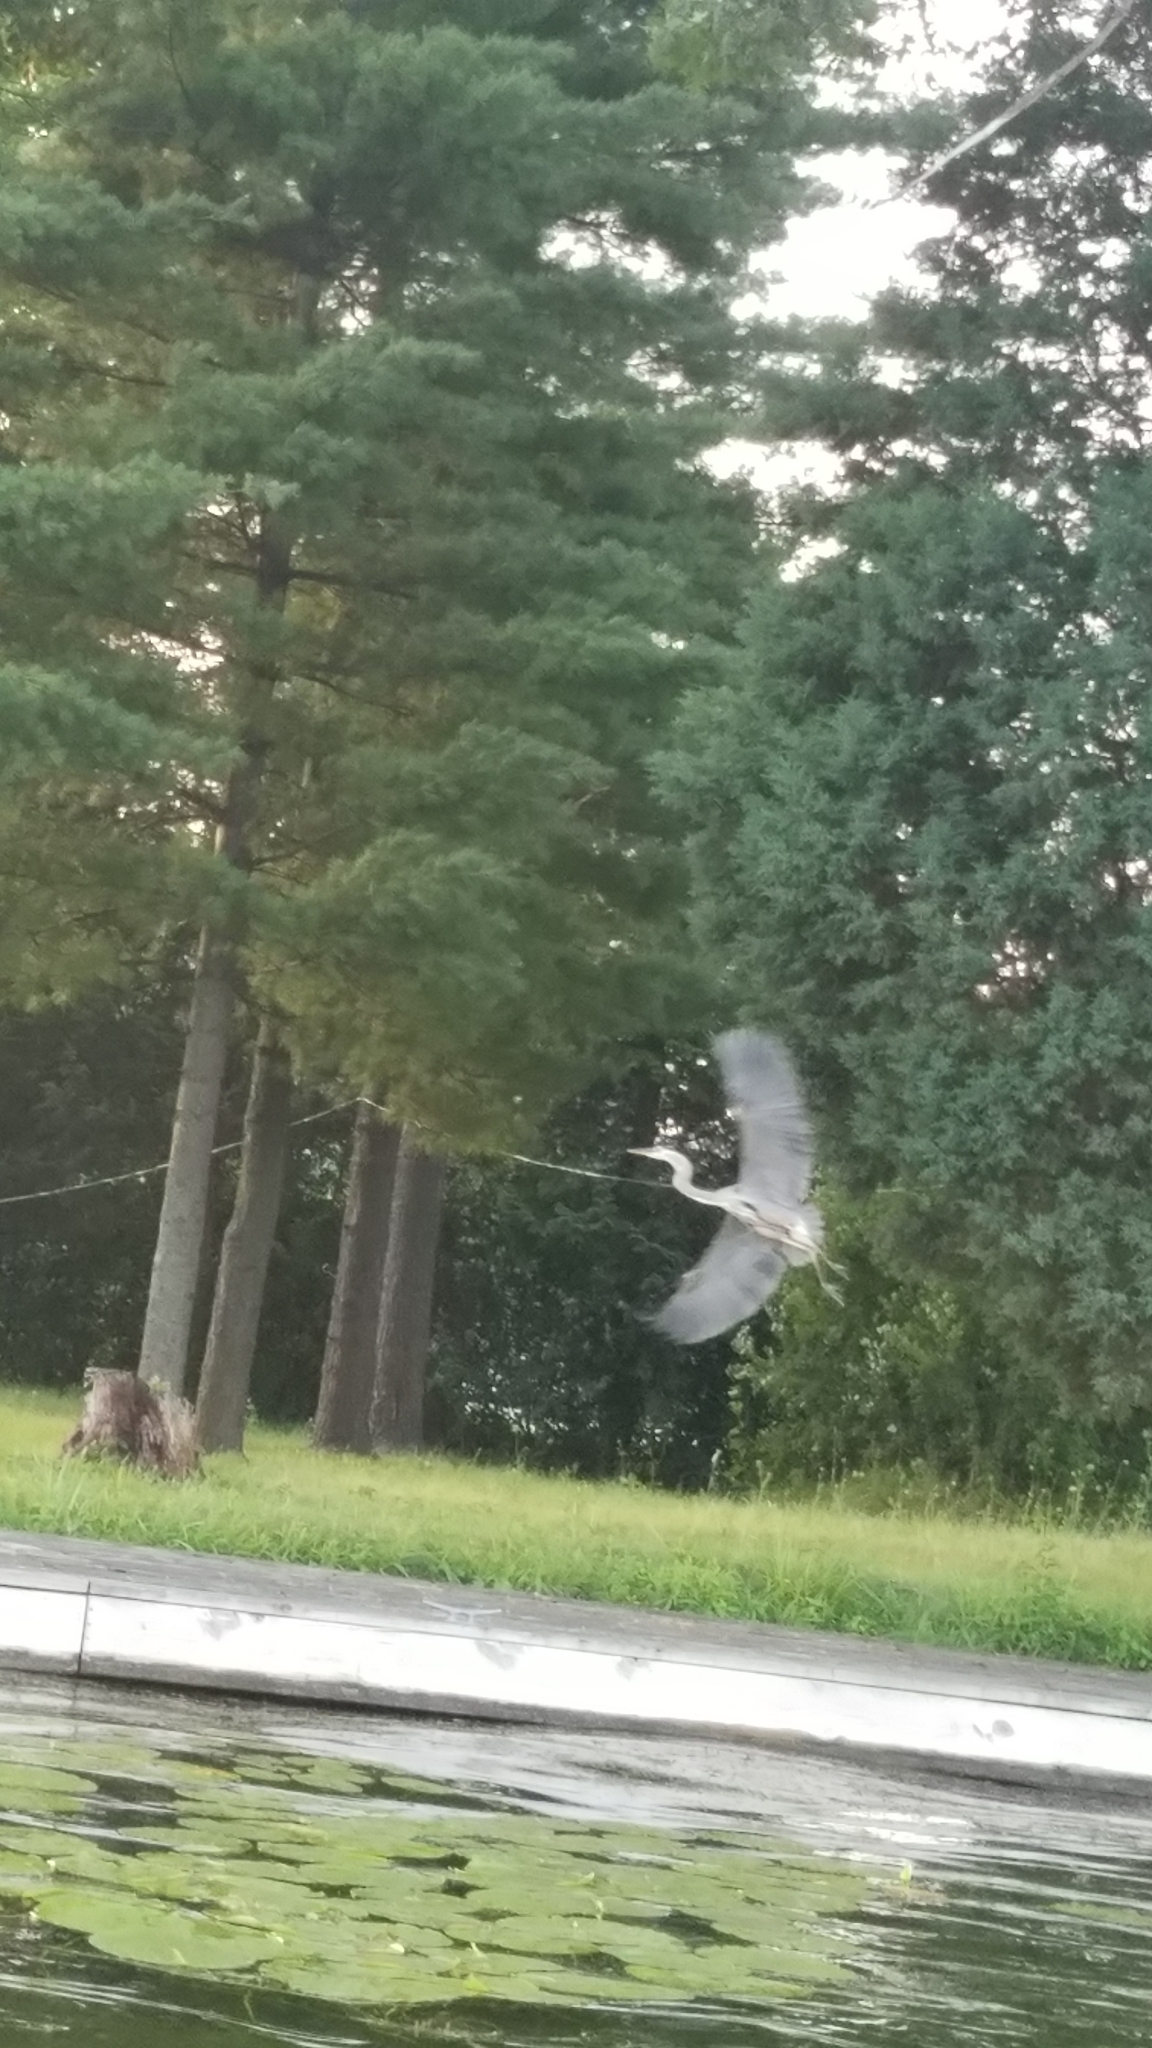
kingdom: Animalia
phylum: Chordata
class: Aves
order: Pelecaniformes
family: Ardeidae
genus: Ardea
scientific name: Ardea herodias
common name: Great blue heron
